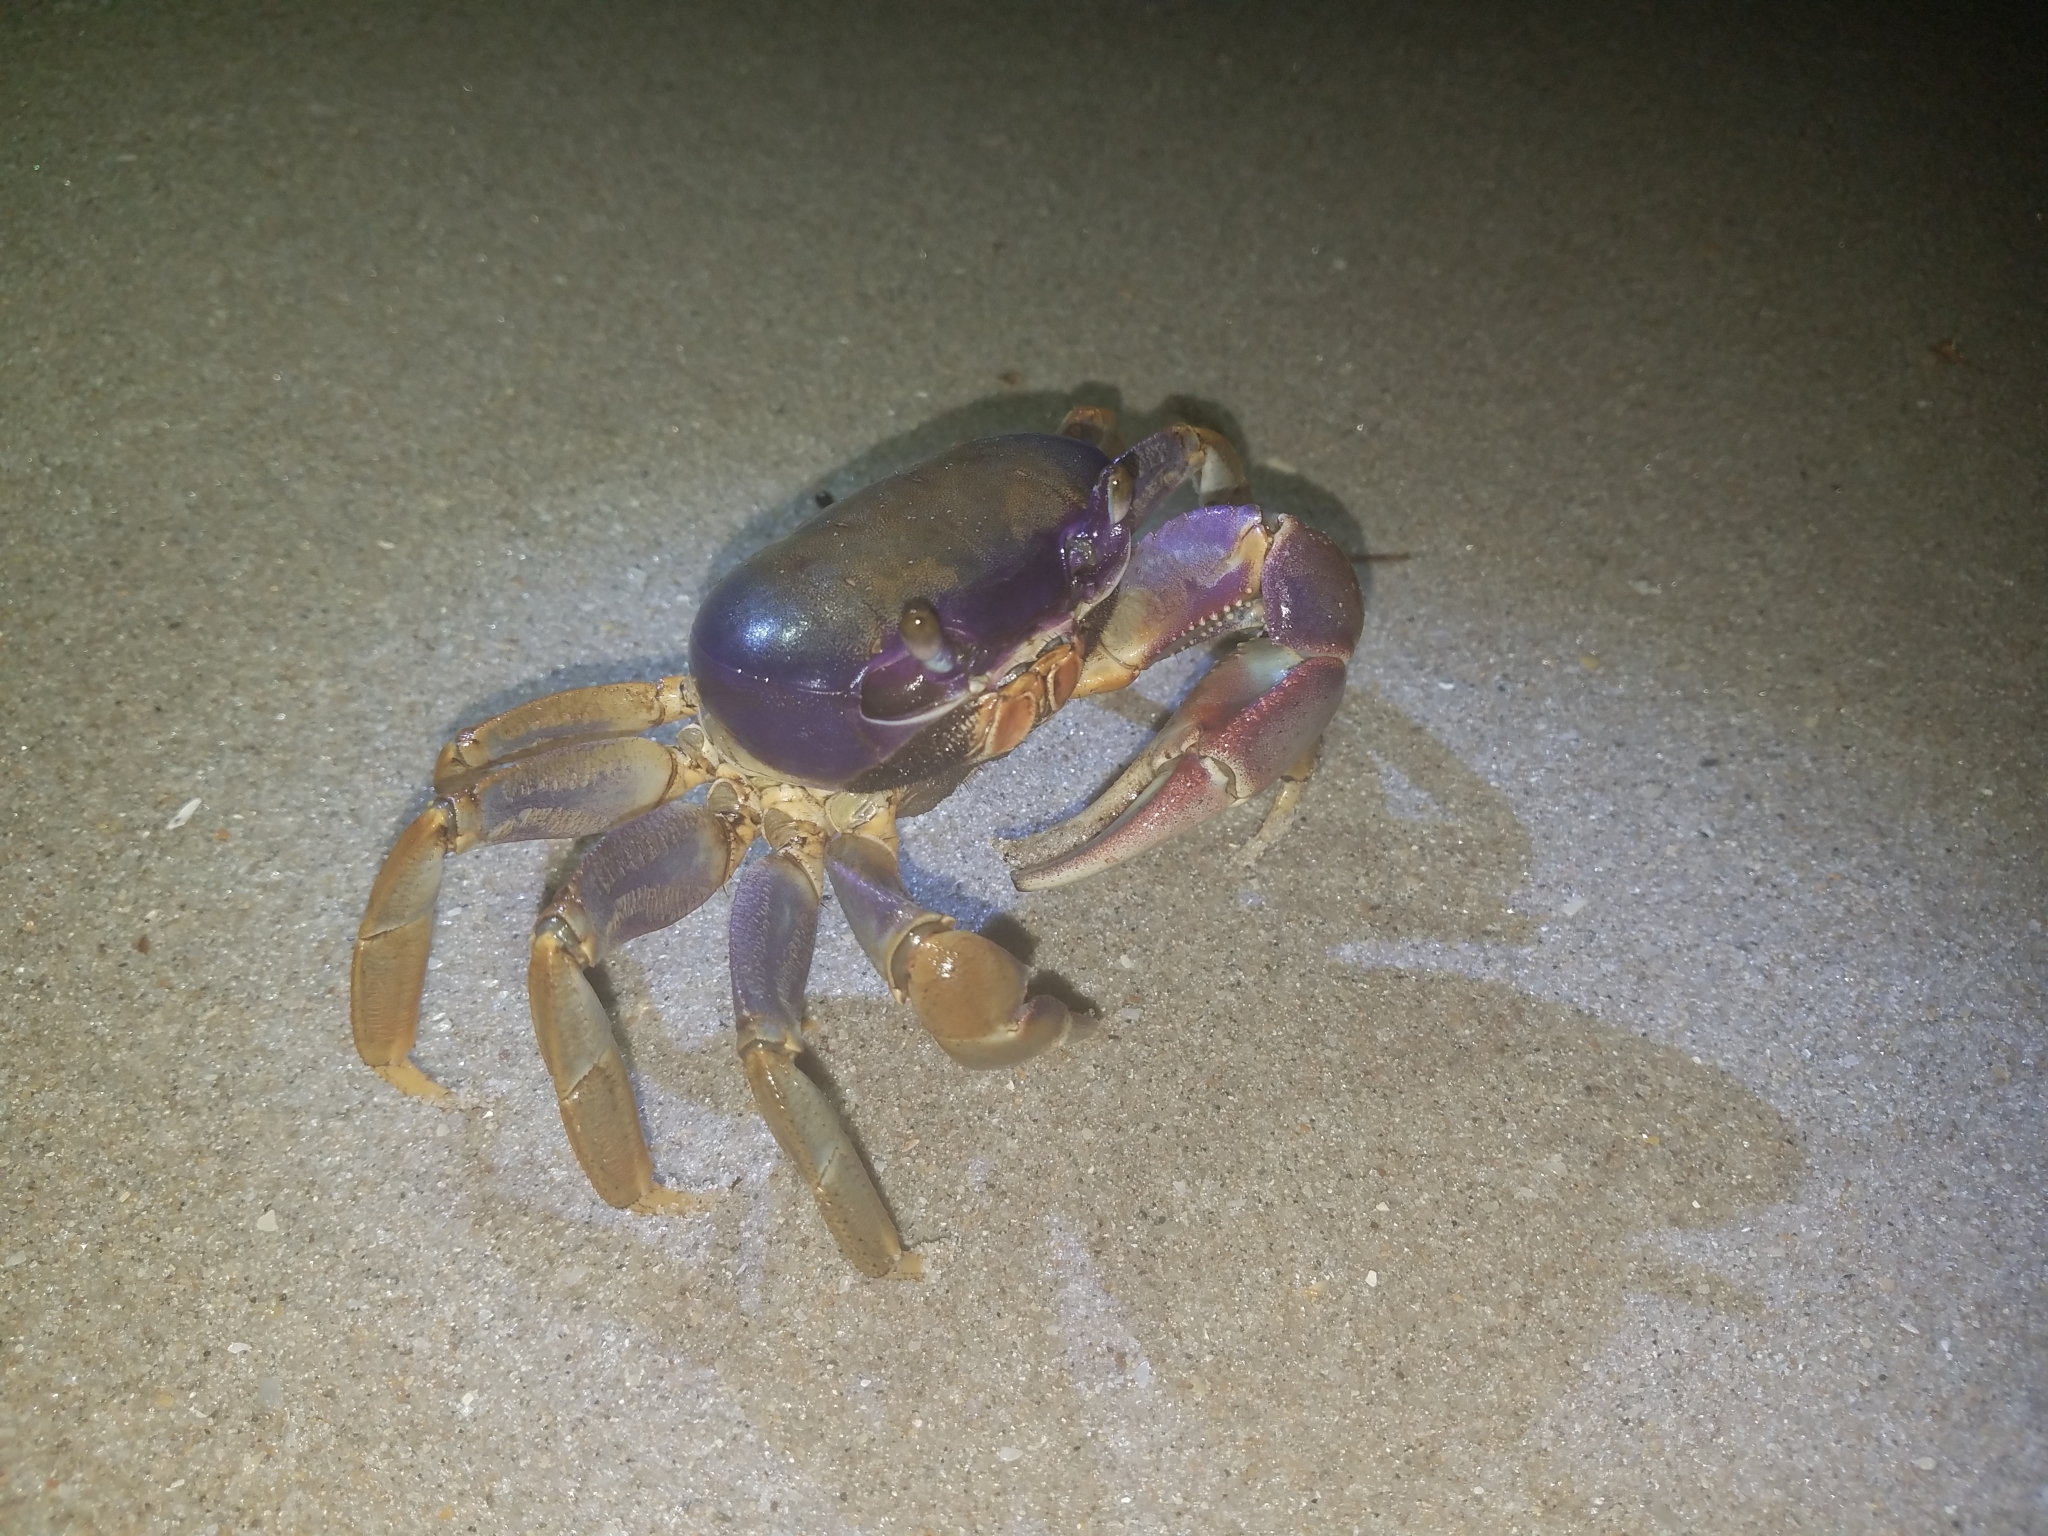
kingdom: Animalia
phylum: Arthropoda
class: Malacostraca
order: Decapoda
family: Gecarcinidae
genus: Cardisoma
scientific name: Cardisoma guanhumi
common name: Great land crab
